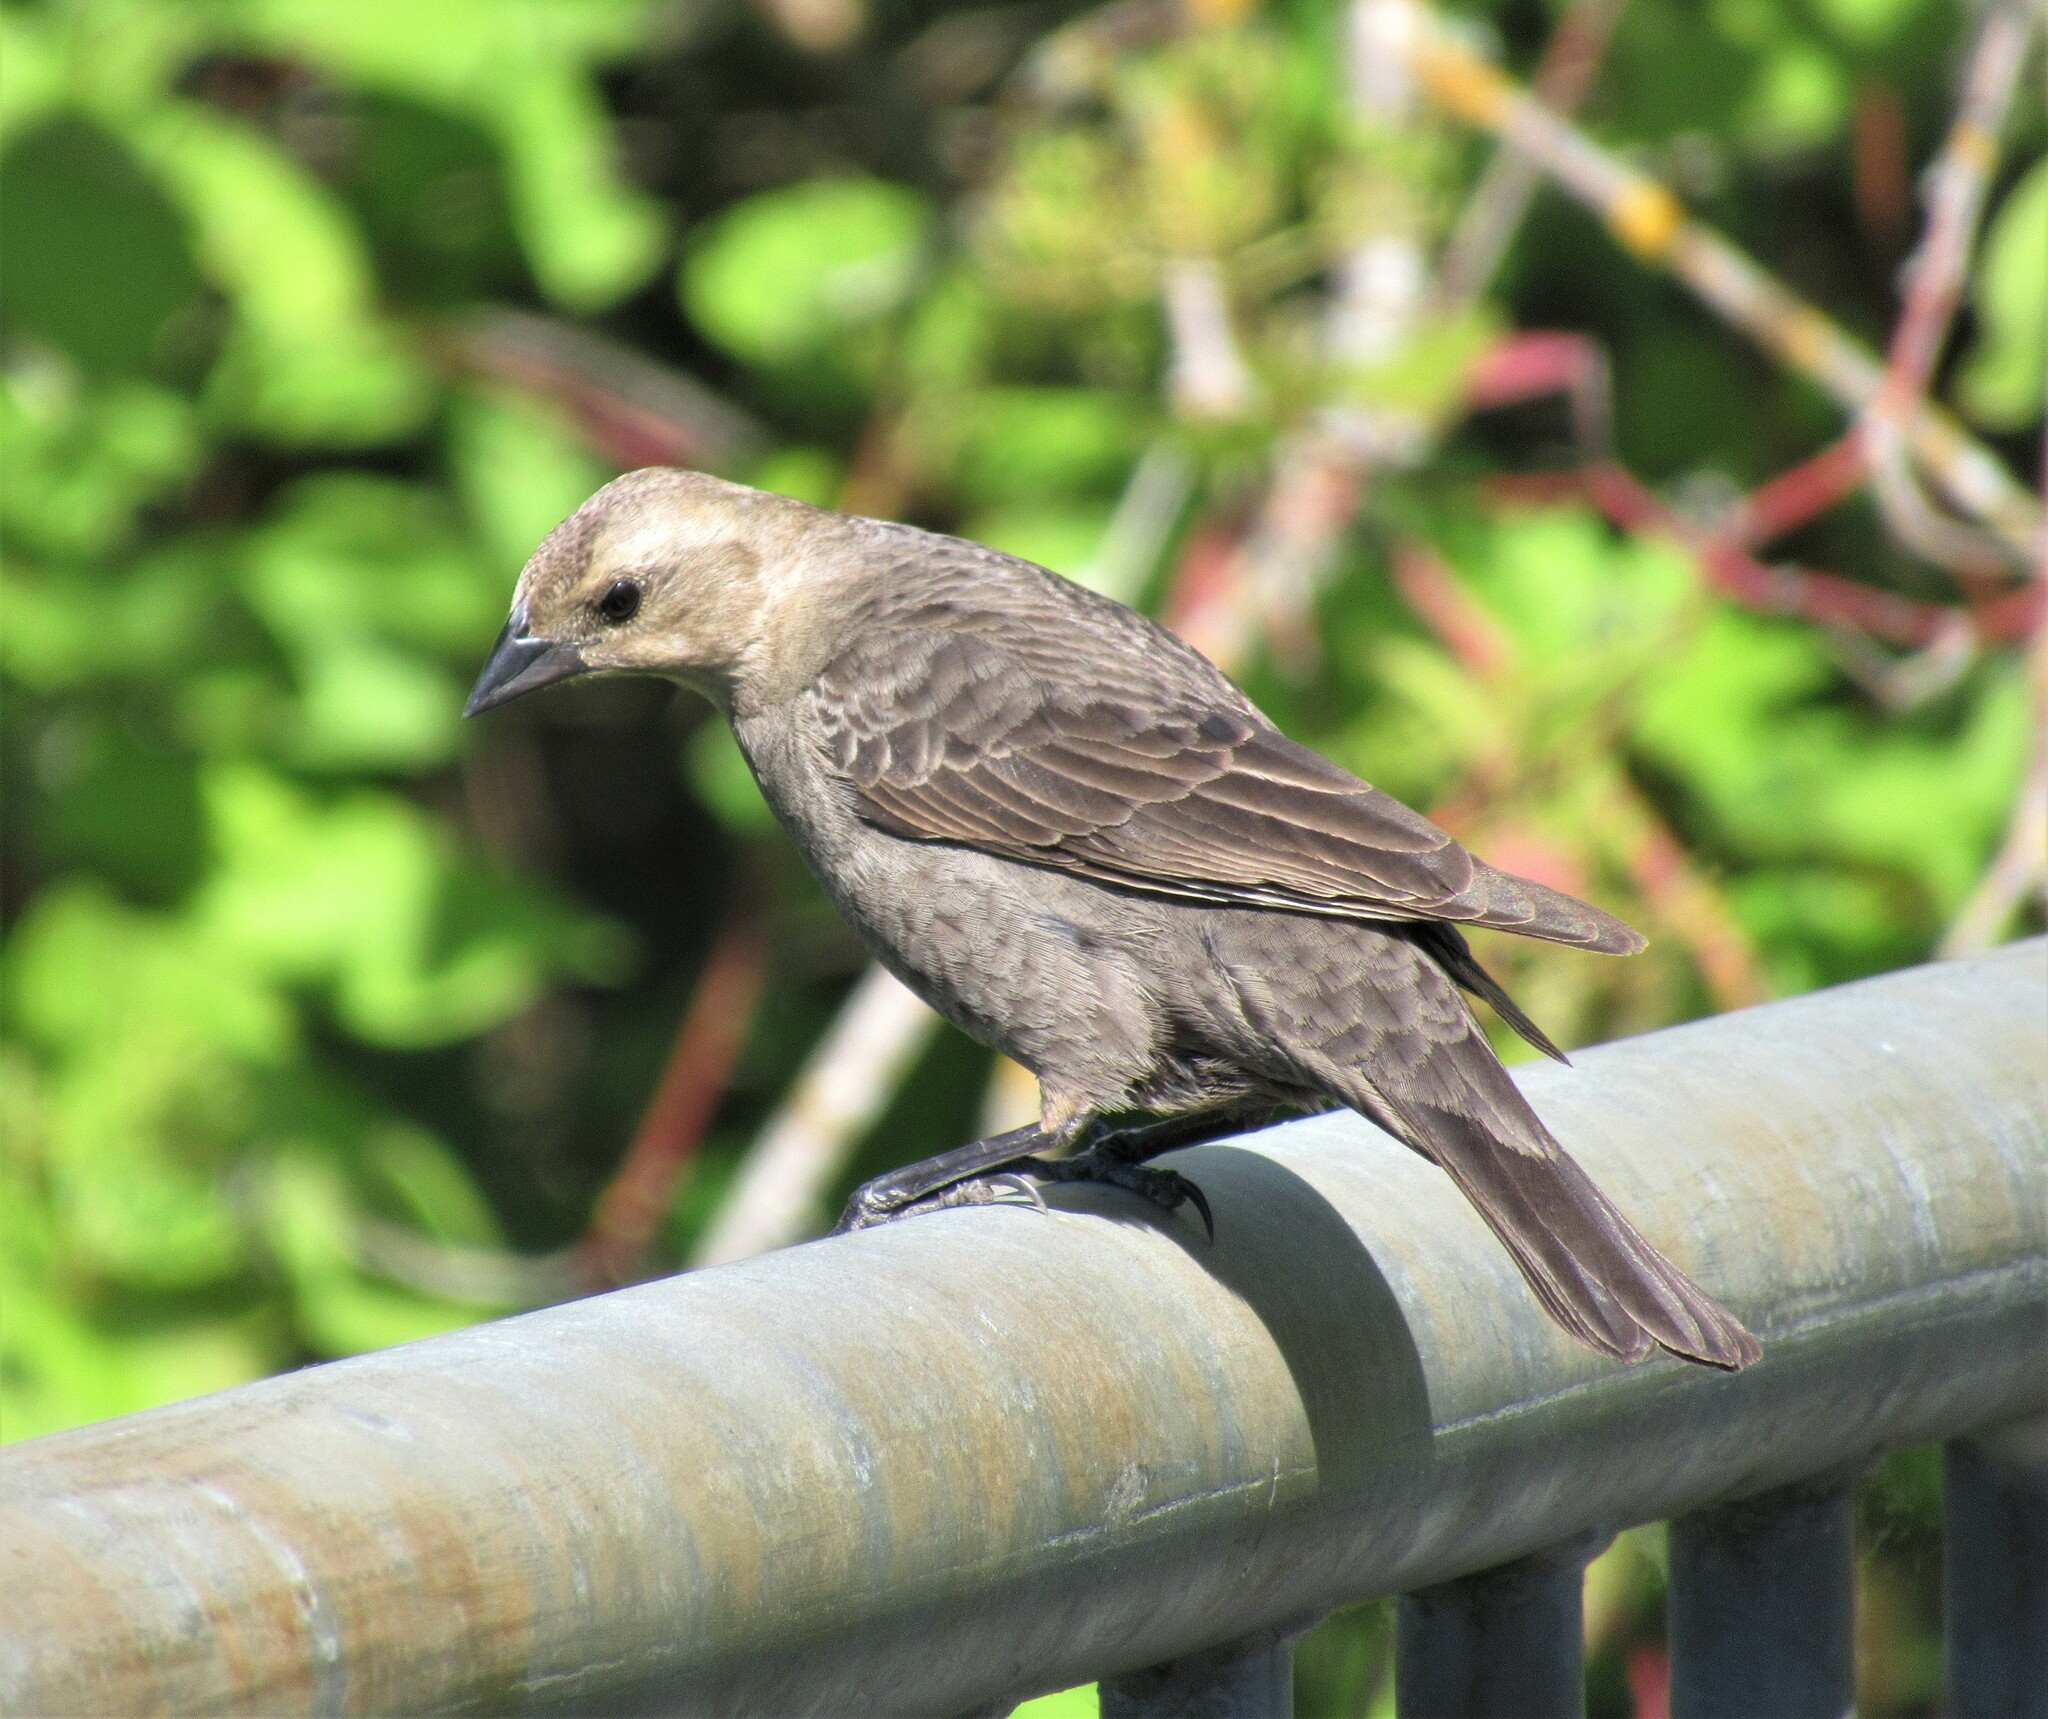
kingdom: Animalia
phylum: Chordata
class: Aves
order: Passeriformes
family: Icteridae
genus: Molothrus
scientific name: Molothrus ater
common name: Brown-headed cowbird
